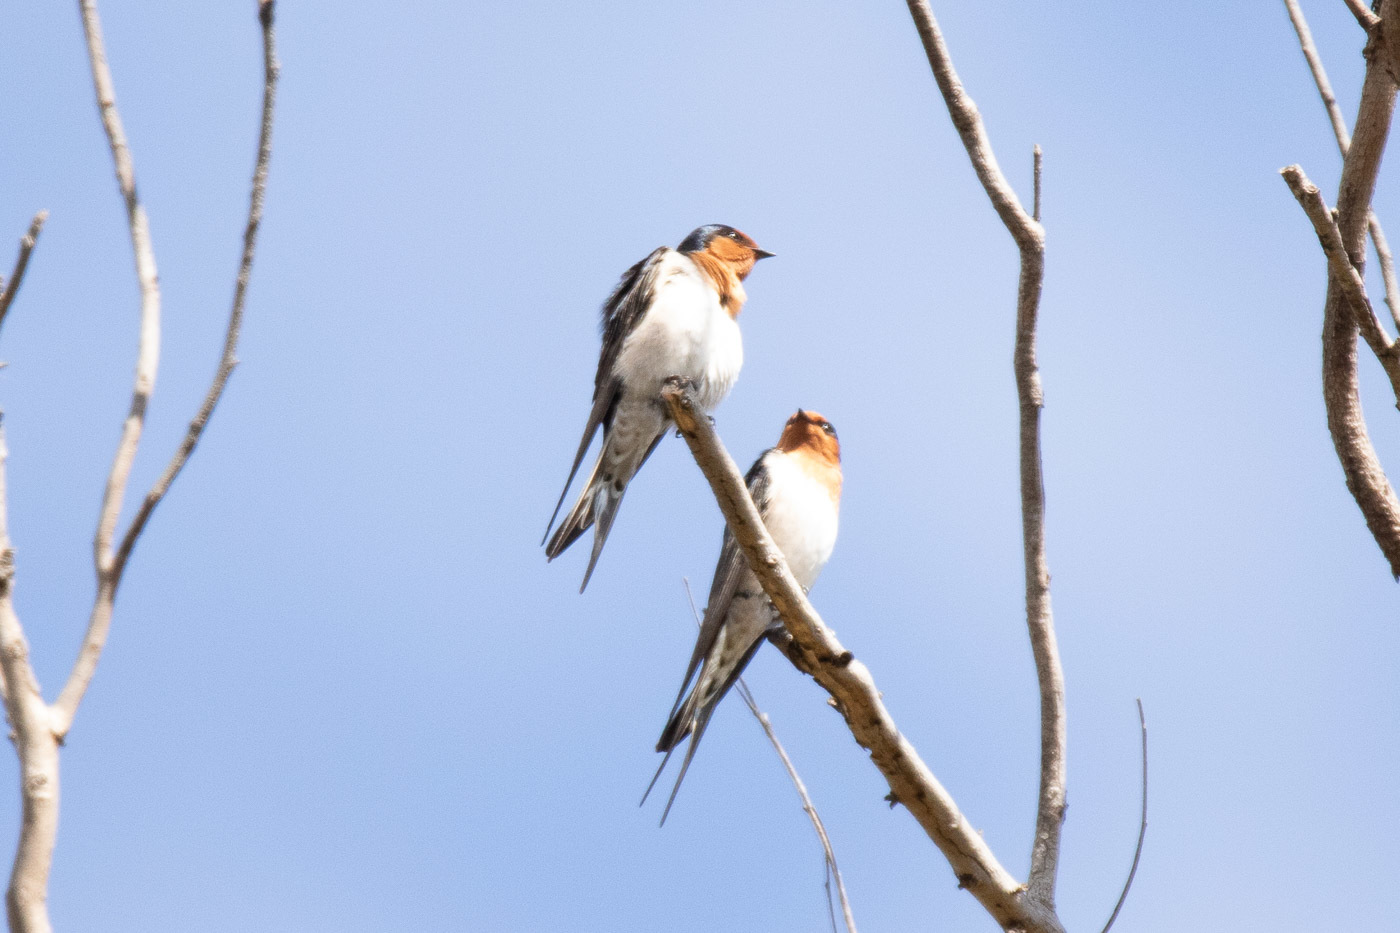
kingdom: Animalia
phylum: Chordata
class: Aves
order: Passeriformes
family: Hirundinidae
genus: Hirundo
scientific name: Hirundo neoxena
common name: Welcome swallow
